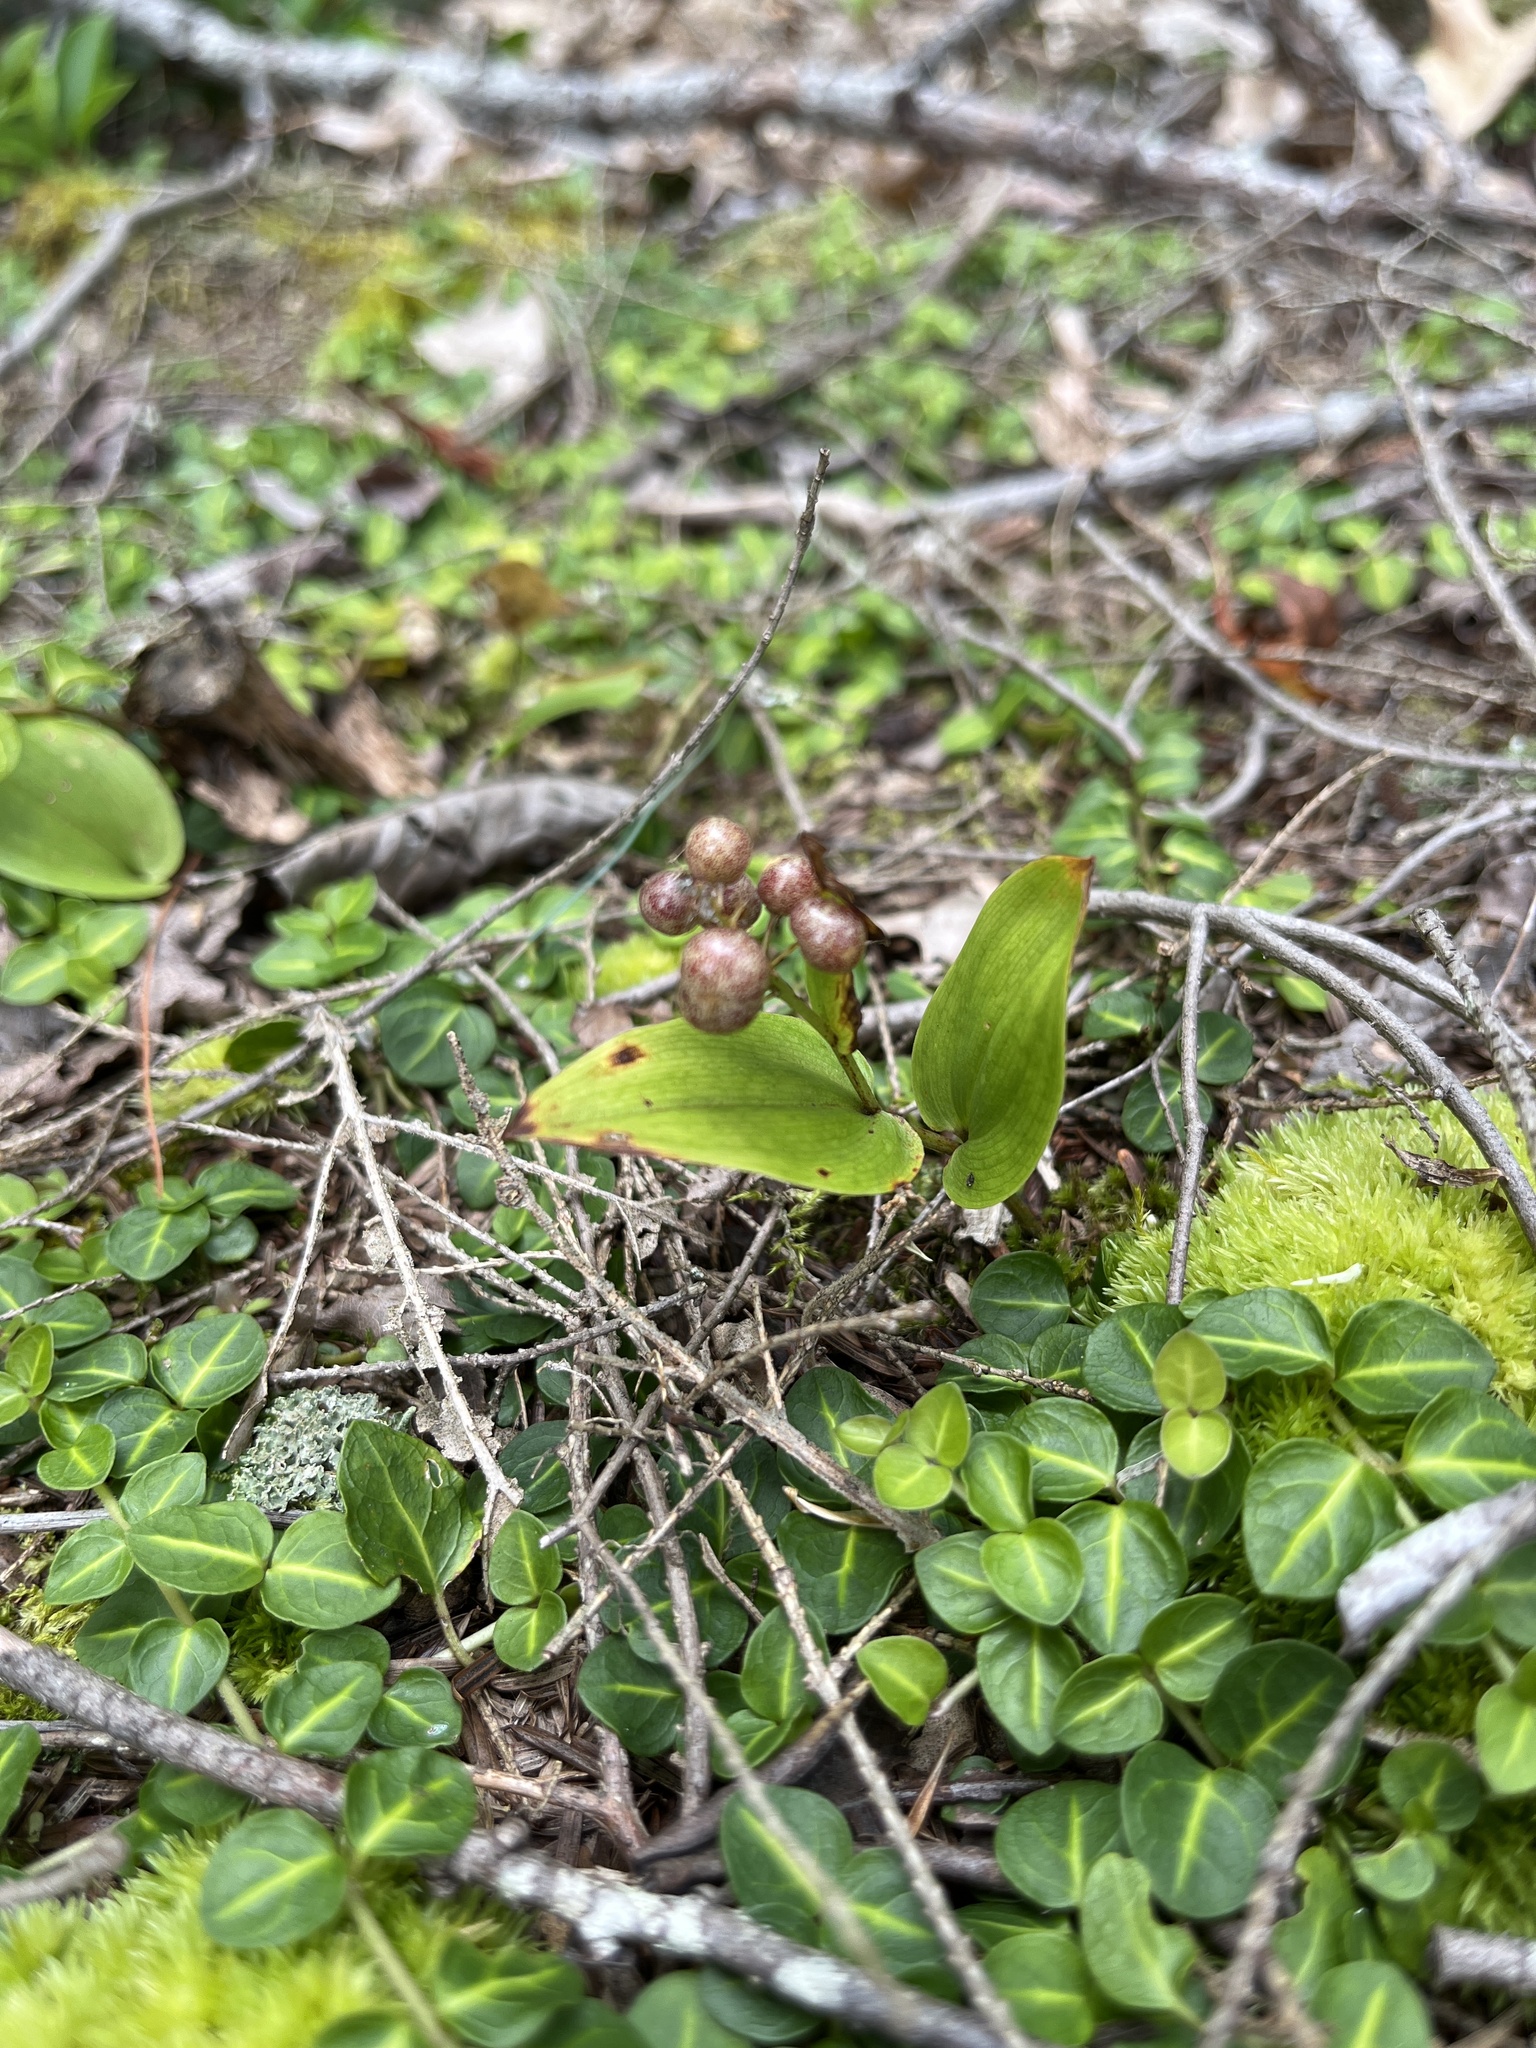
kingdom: Plantae
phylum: Tracheophyta
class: Liliopsida
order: Asparagales
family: Asparagaceae
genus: Maianthemum
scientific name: Maianthemum canadense
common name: False lily-of-the-valley
